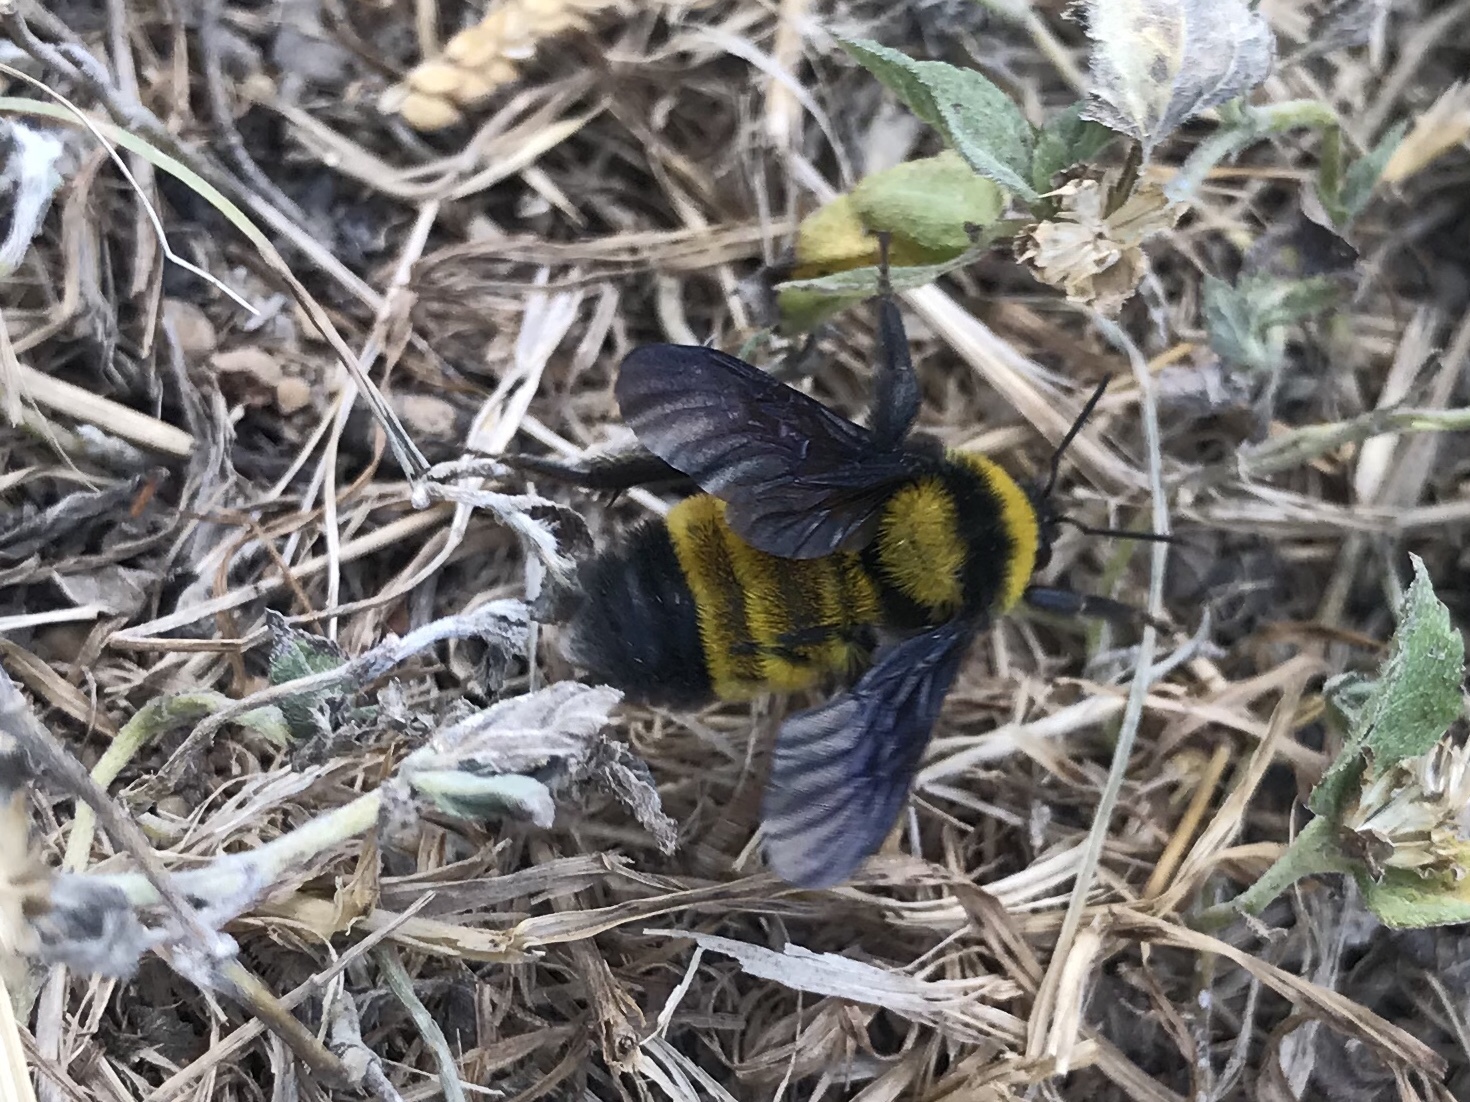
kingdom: Animalia
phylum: Arthropoda
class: Insecta
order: Hymenoptera
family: Apidae
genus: Bombus
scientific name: Bombus sonorus
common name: Sonoran bumble bee
